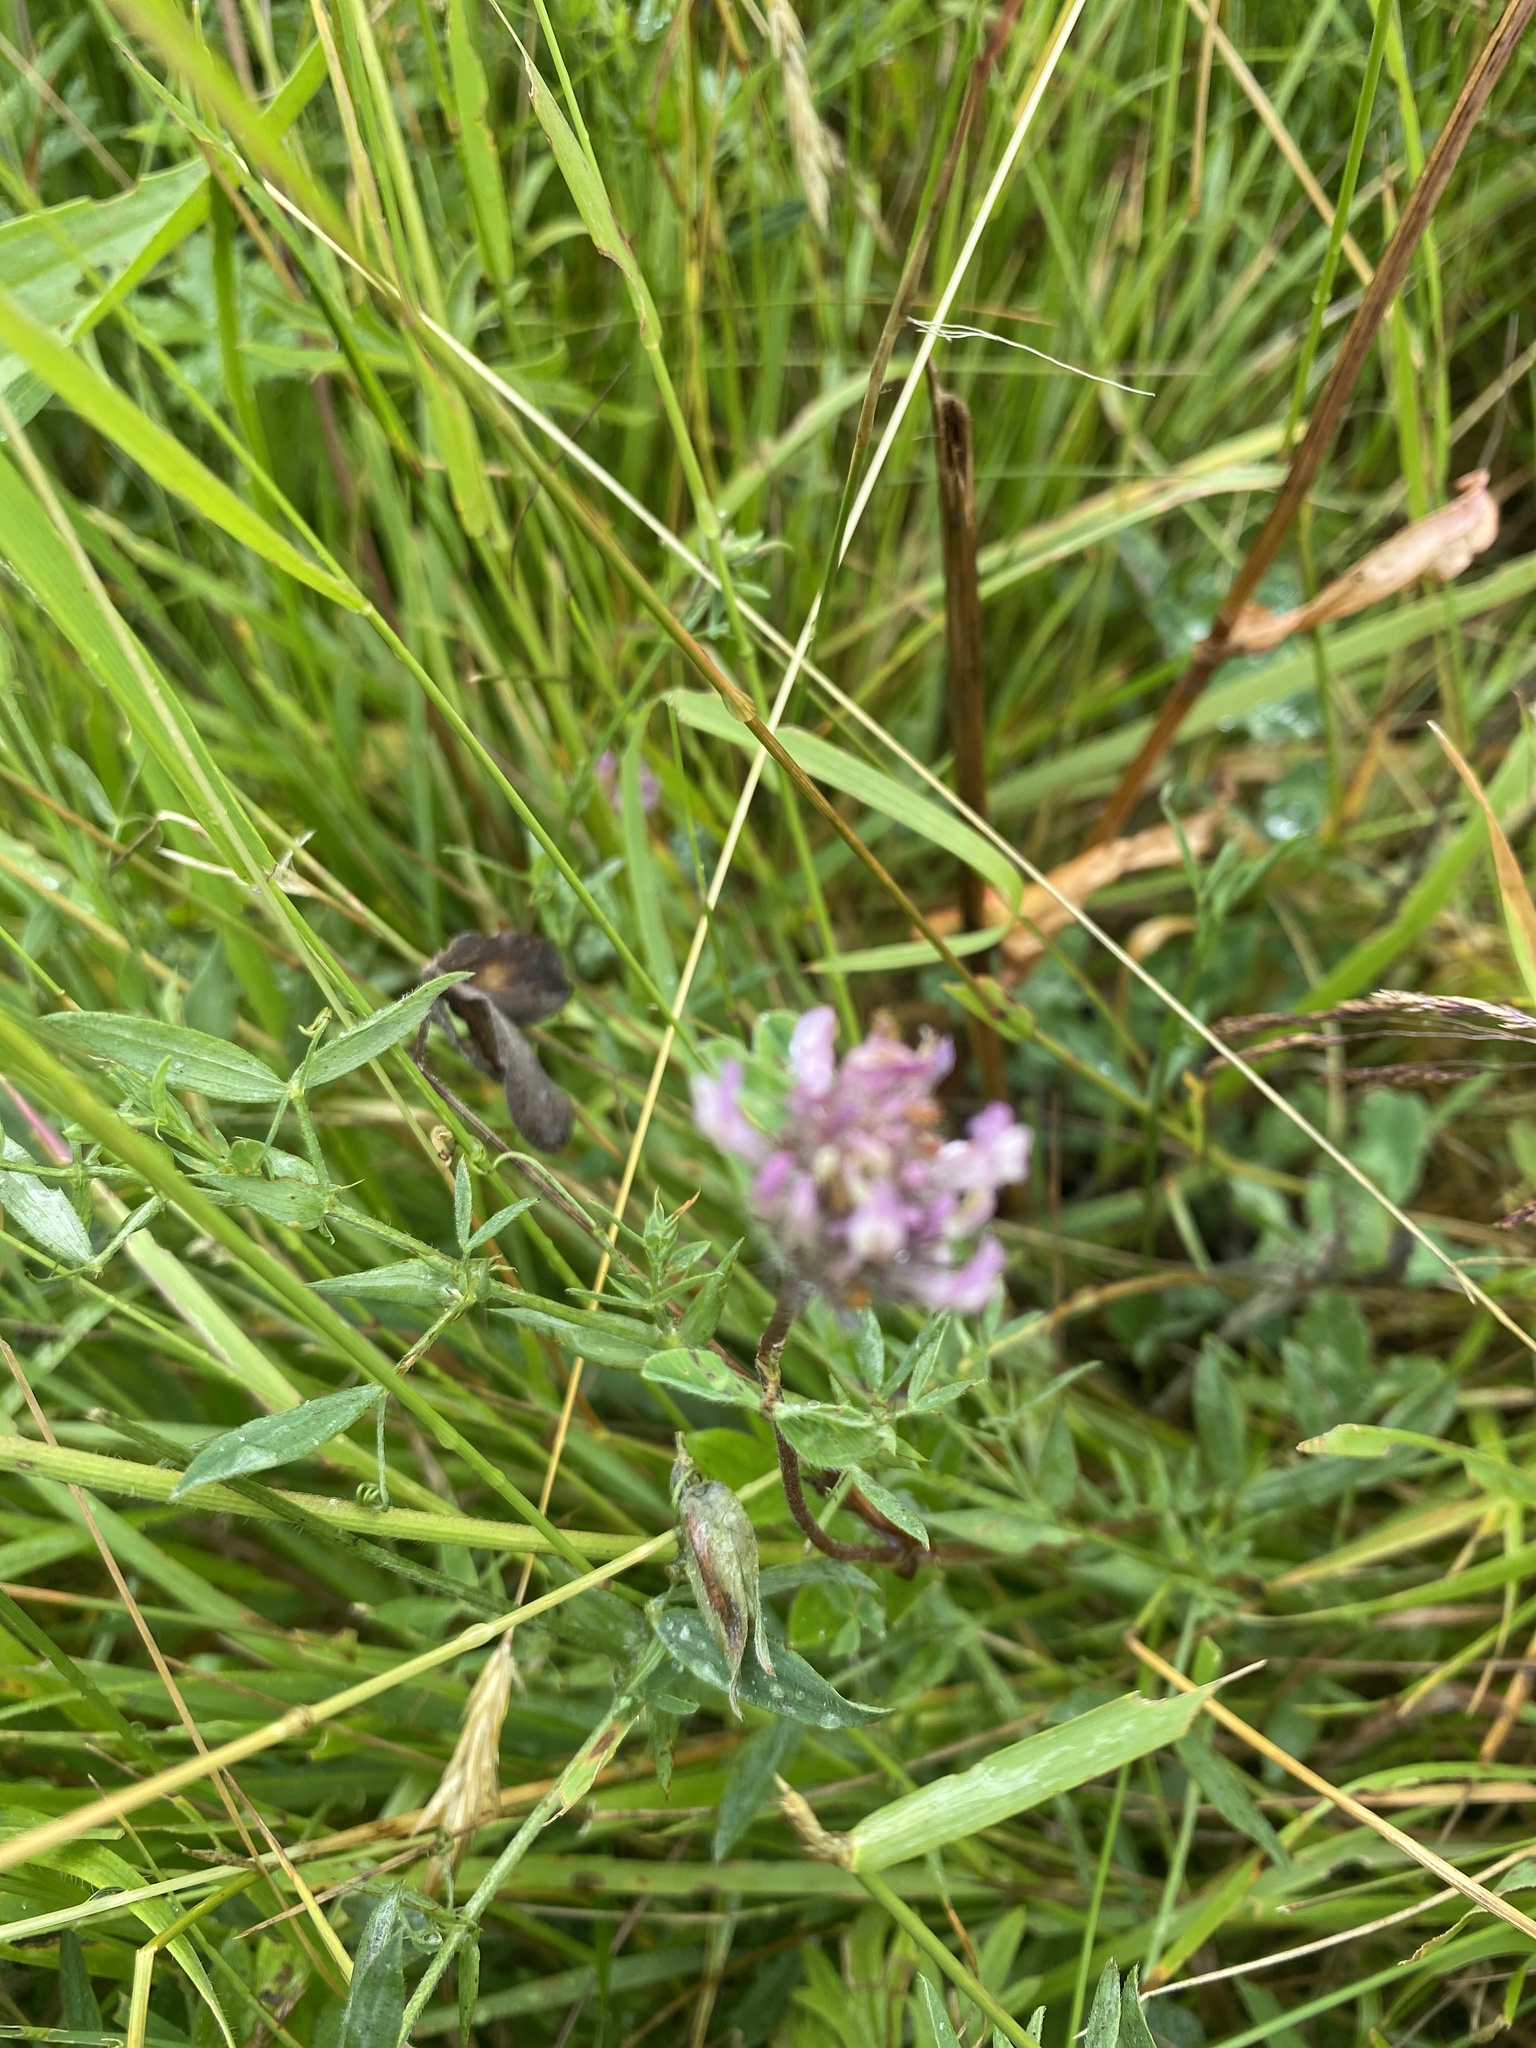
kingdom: Plantae
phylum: Tracheophyta
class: Magnoliopsida
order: Fabales
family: Fabaceae
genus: Trifolium
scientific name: Trifolium pratense
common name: Red clover
